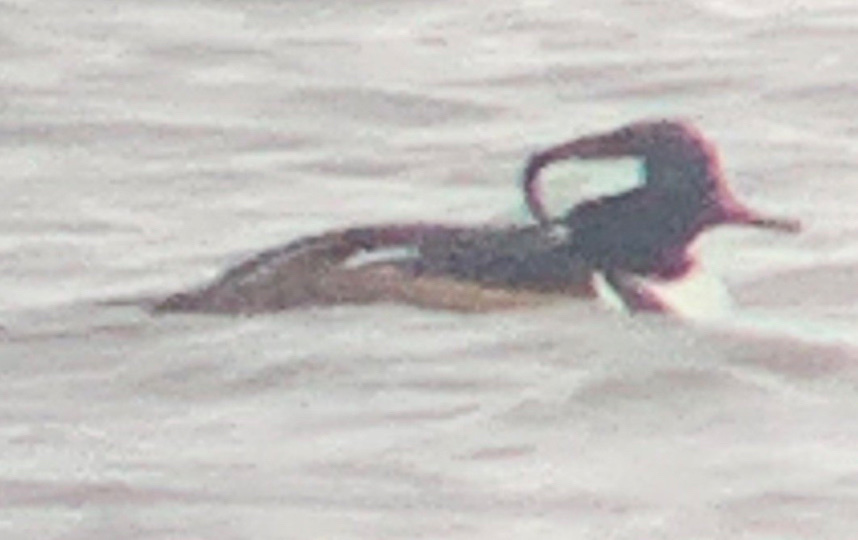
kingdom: Animalia
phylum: Chordata
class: Aves
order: Anseriformes
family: Anatidae
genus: Lophodytes
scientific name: Lophodytes cucullatus
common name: Hooded merganser
